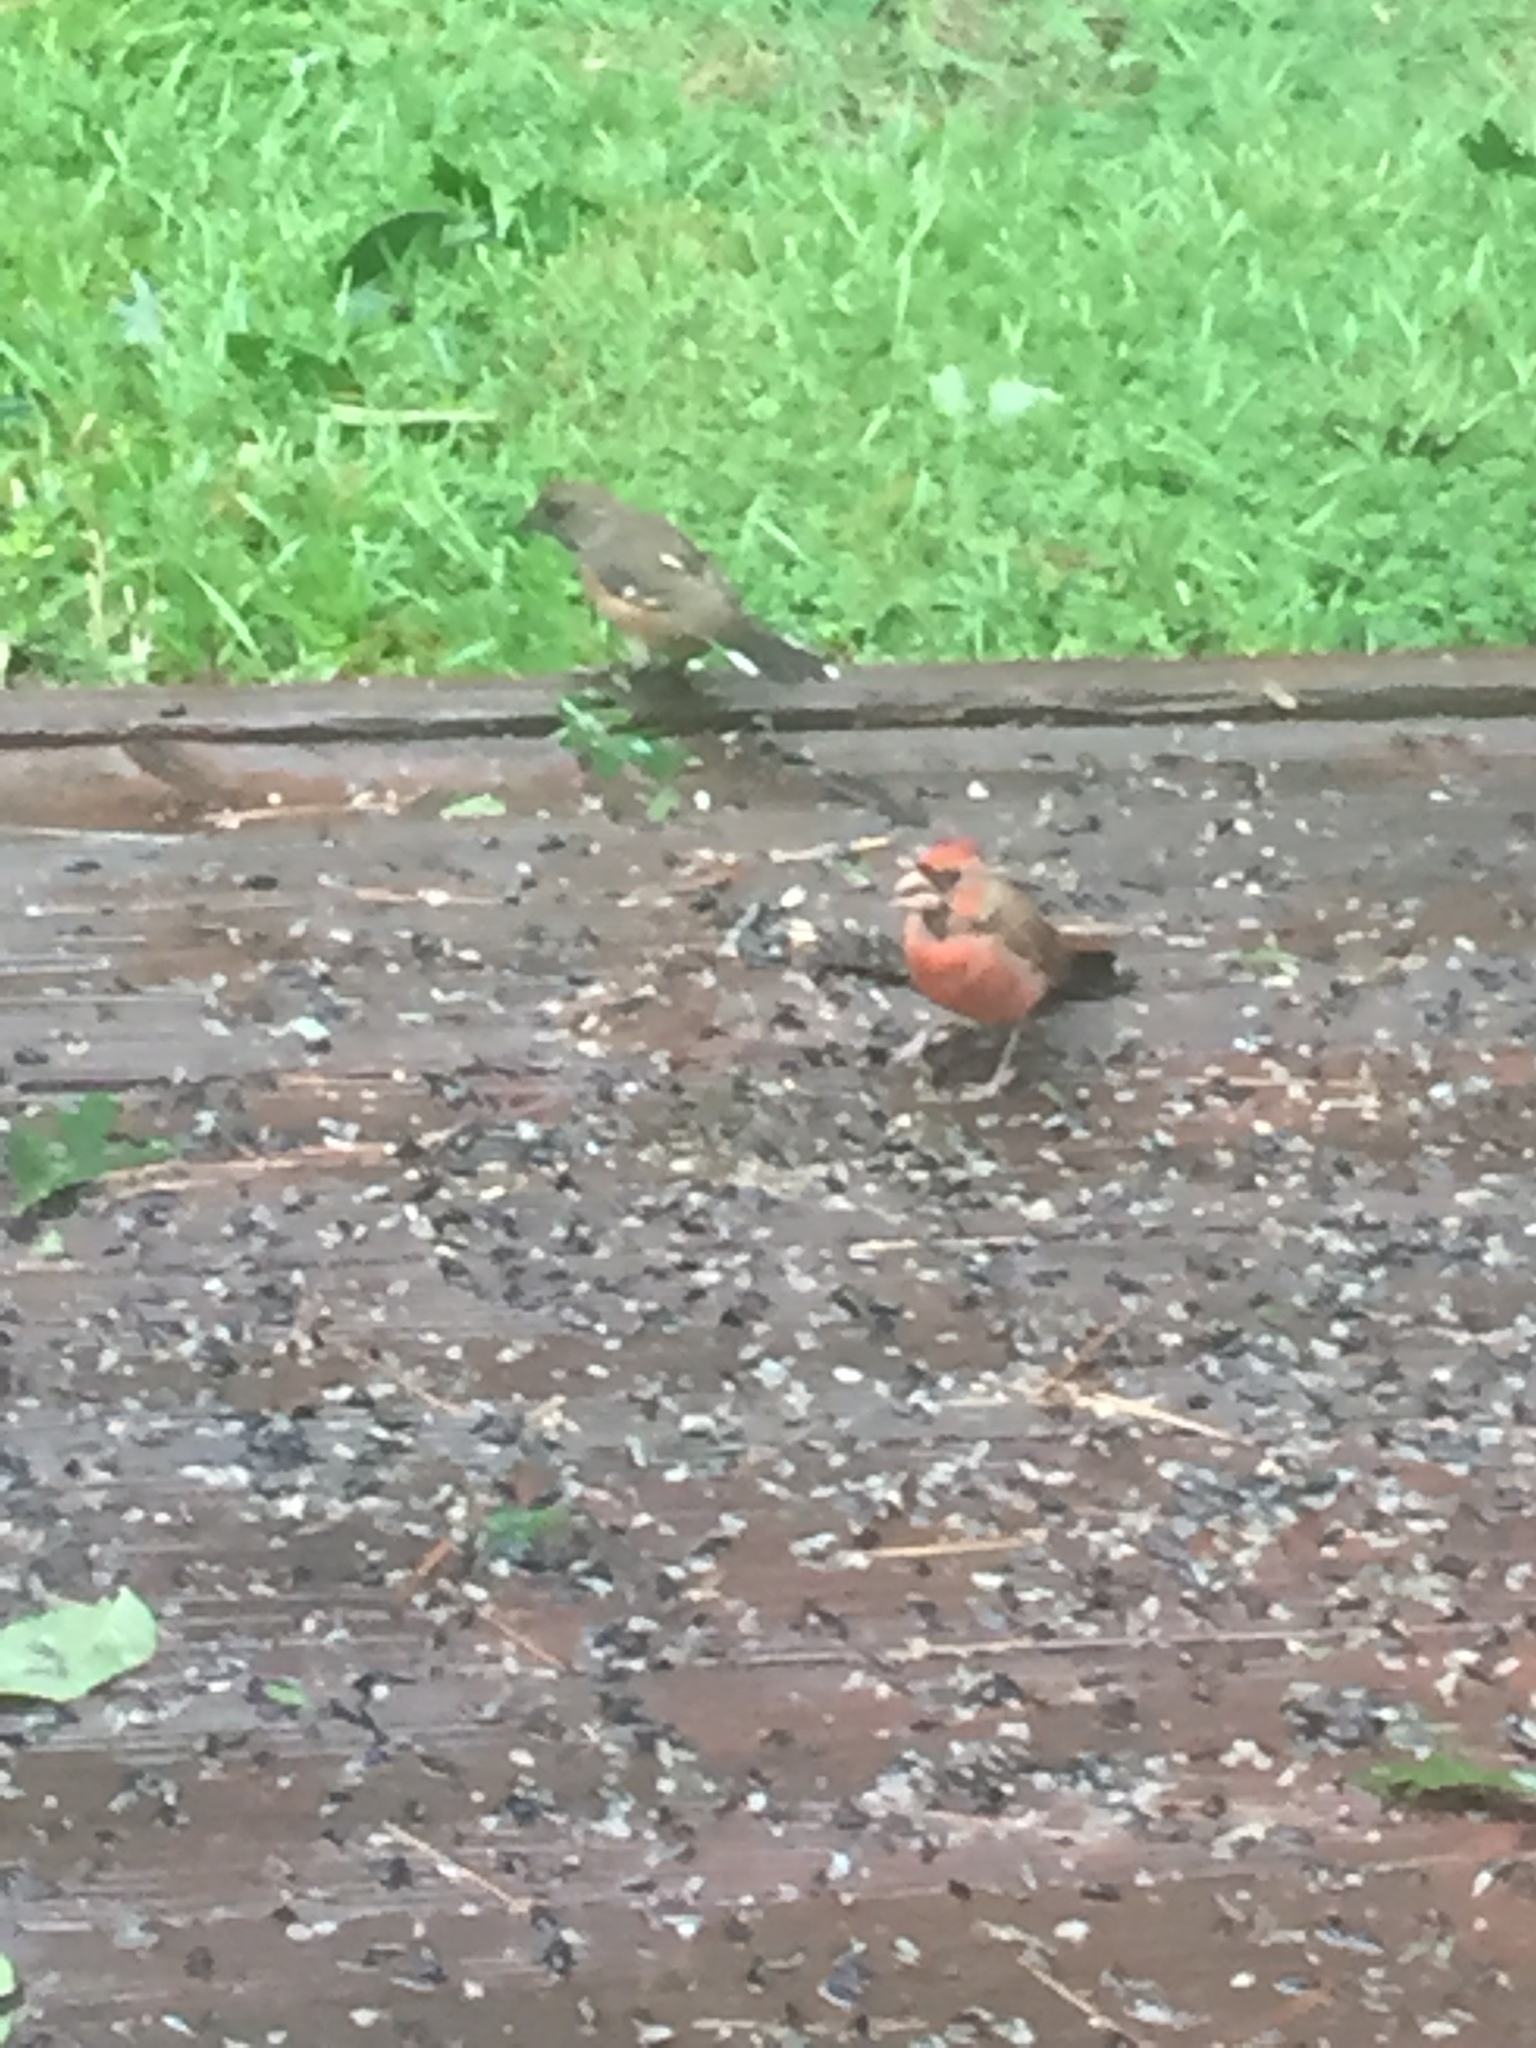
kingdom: Animalia
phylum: Chordata
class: Aves
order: Passeriformes
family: Cardinalidae
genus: Cardinalis
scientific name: Cardinalis cardinalis
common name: Northern cardinal
